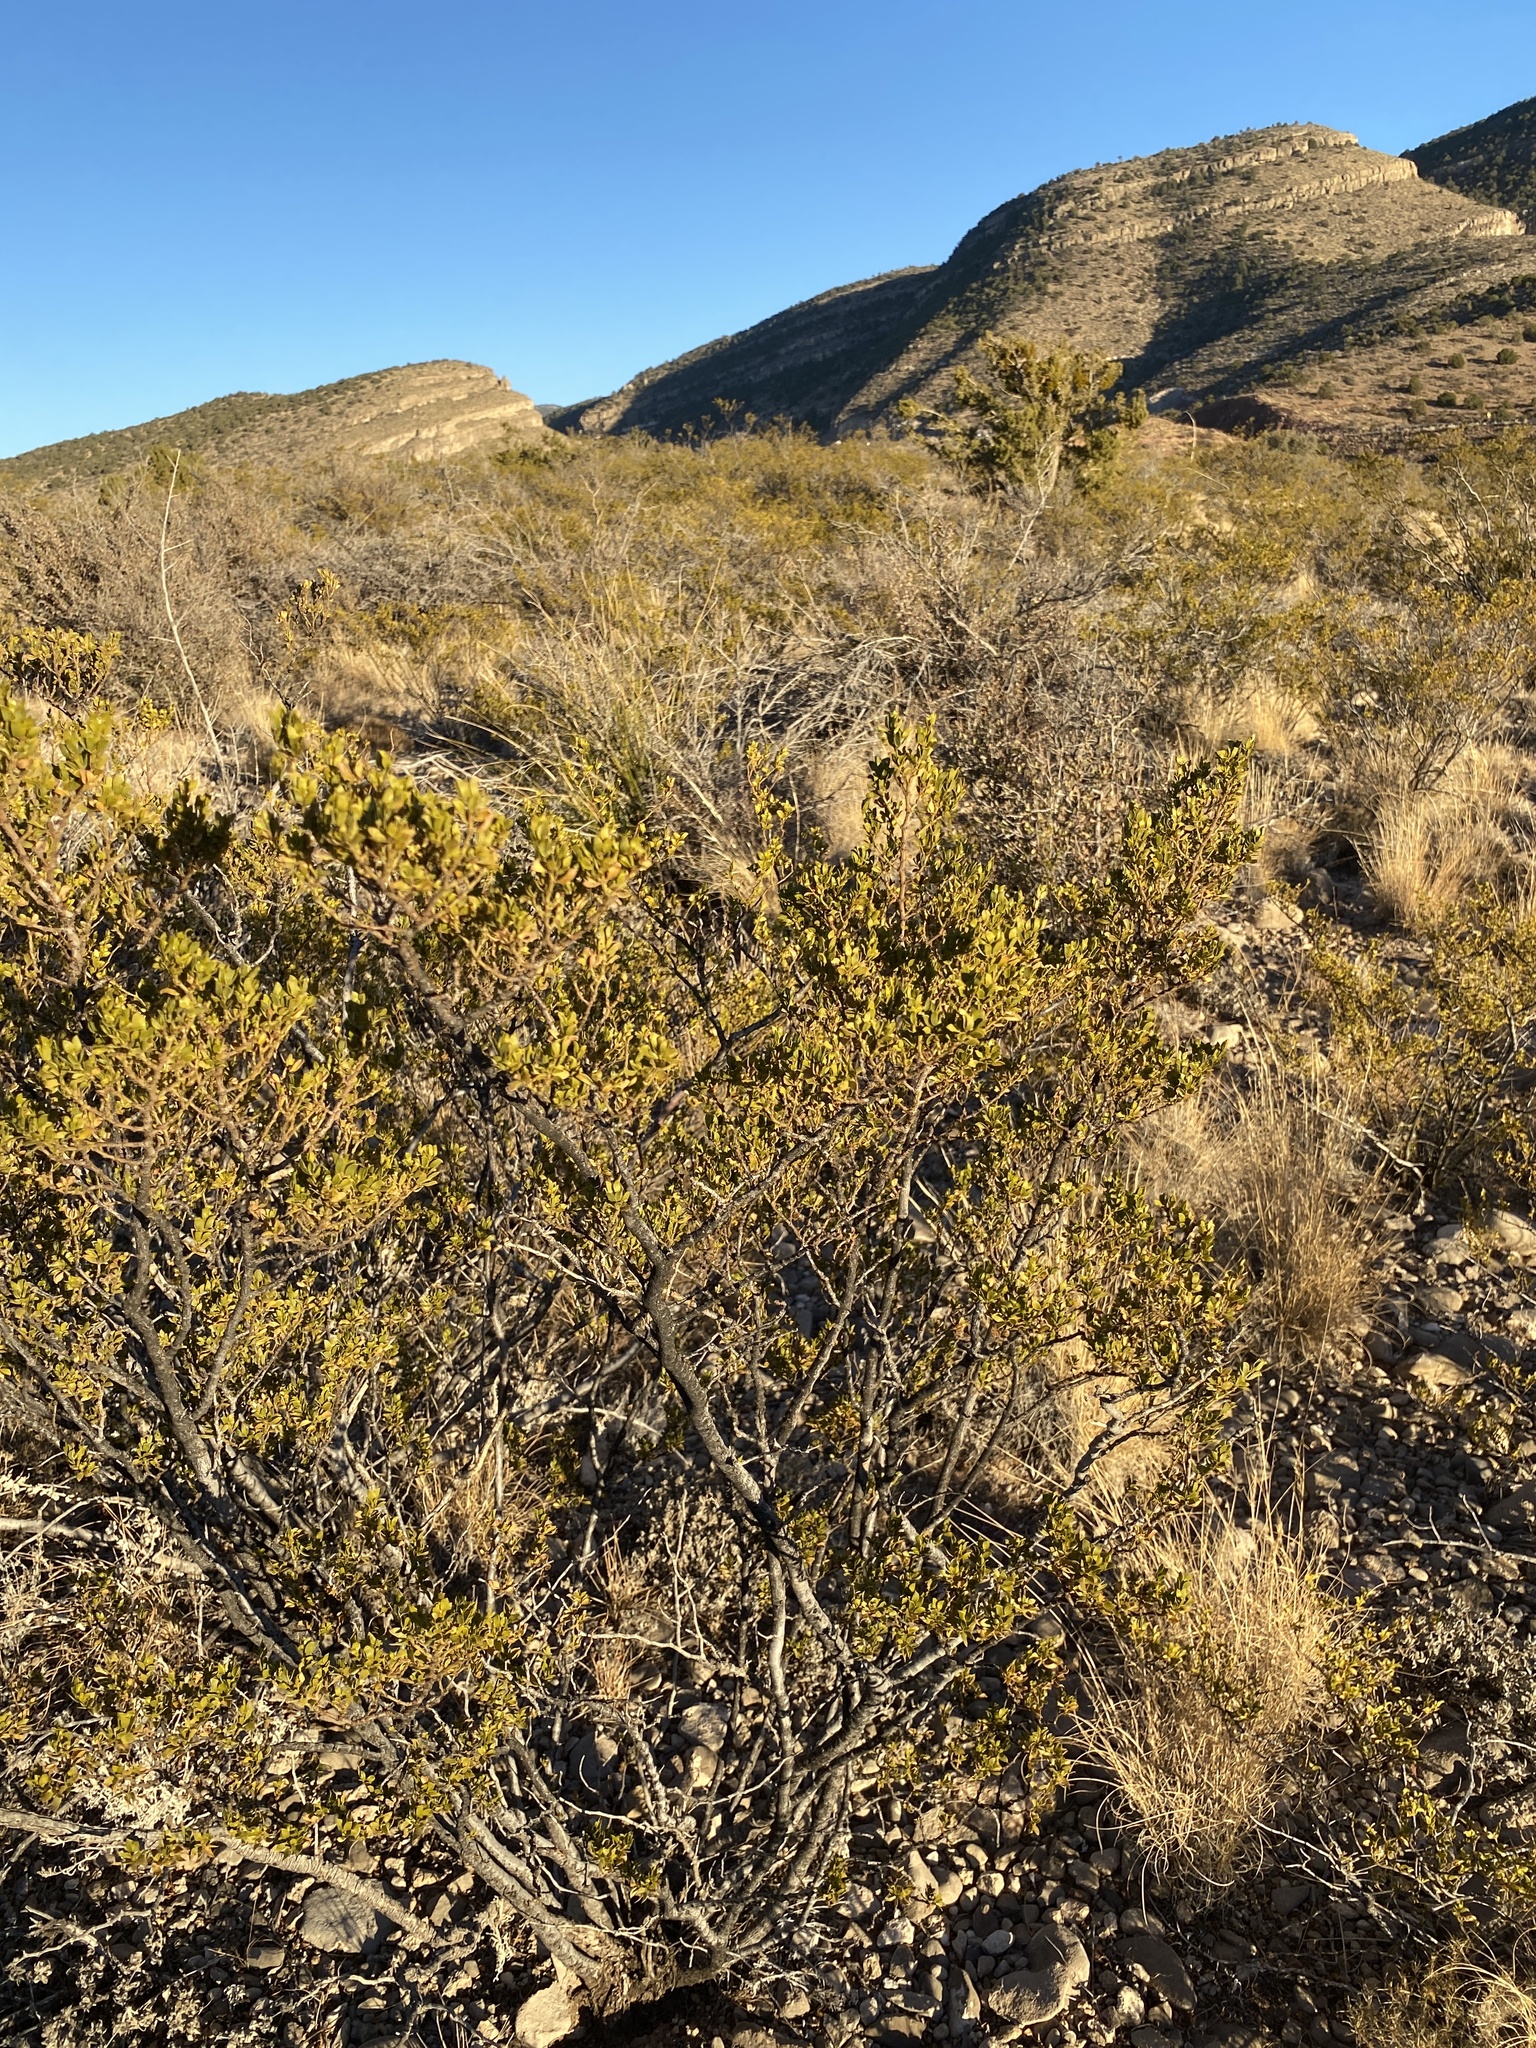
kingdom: Plantae
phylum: Tracheophyta
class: Magnoliopsida
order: Zygophyllales
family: Zygophyllaceae
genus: Larrea
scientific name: Larrea tridentata
